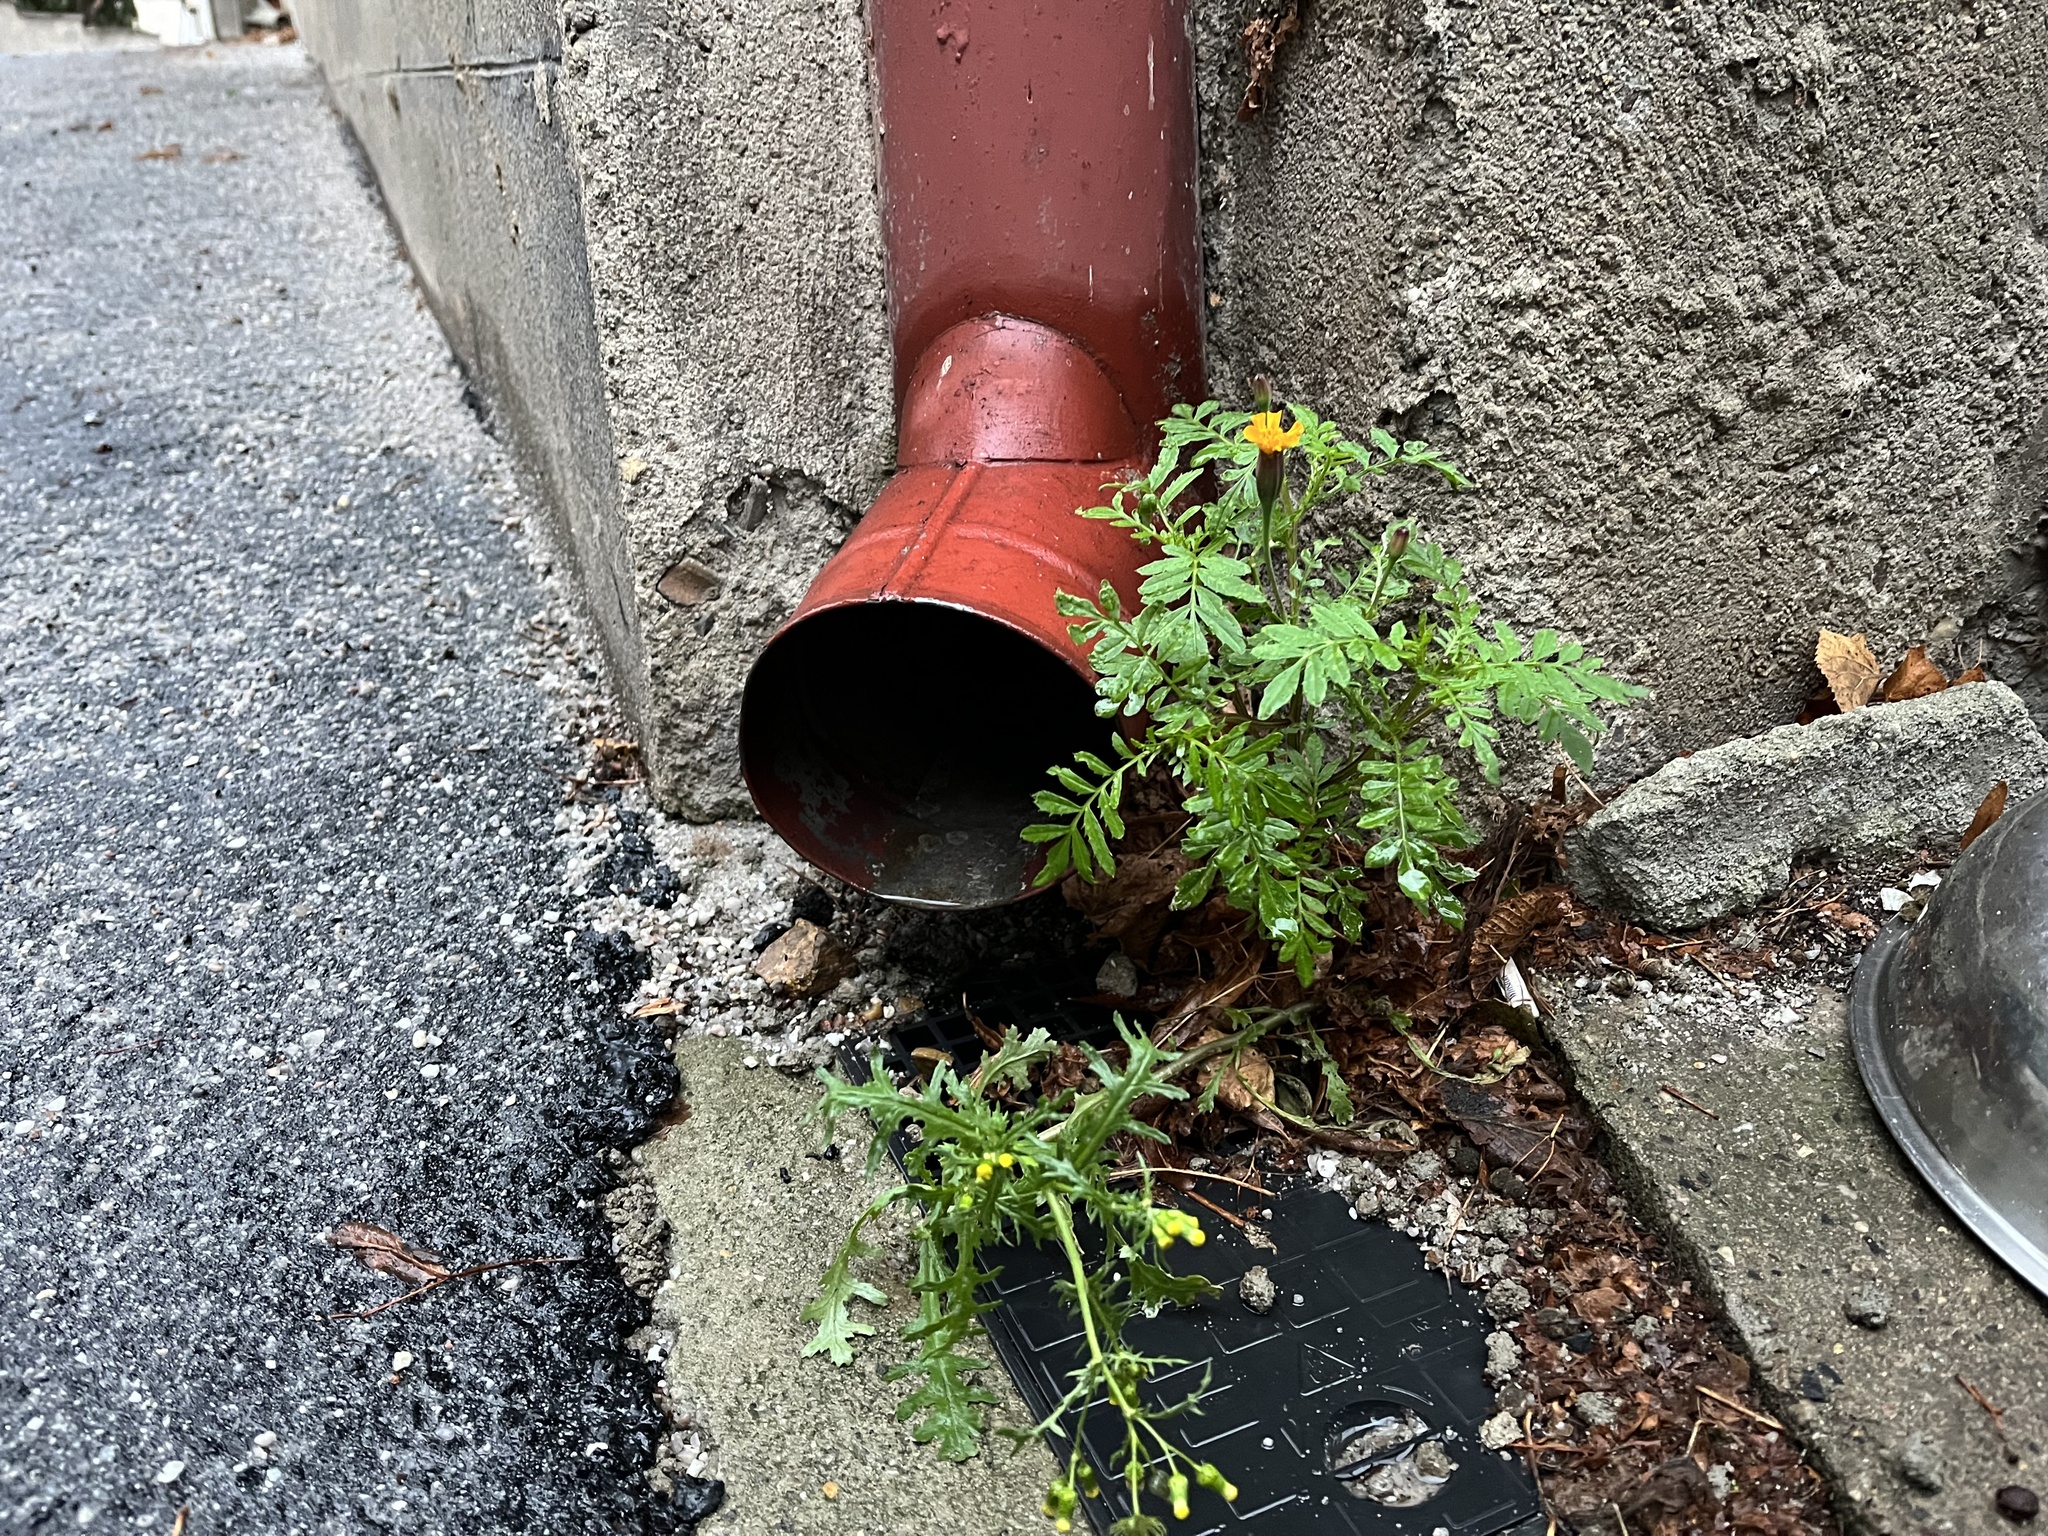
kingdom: Plantae
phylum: Tracheophyta
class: Magnoliopsida
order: Asterales
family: Asteraceae
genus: Tagetes
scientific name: Tagetes erecta
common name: African marigold
